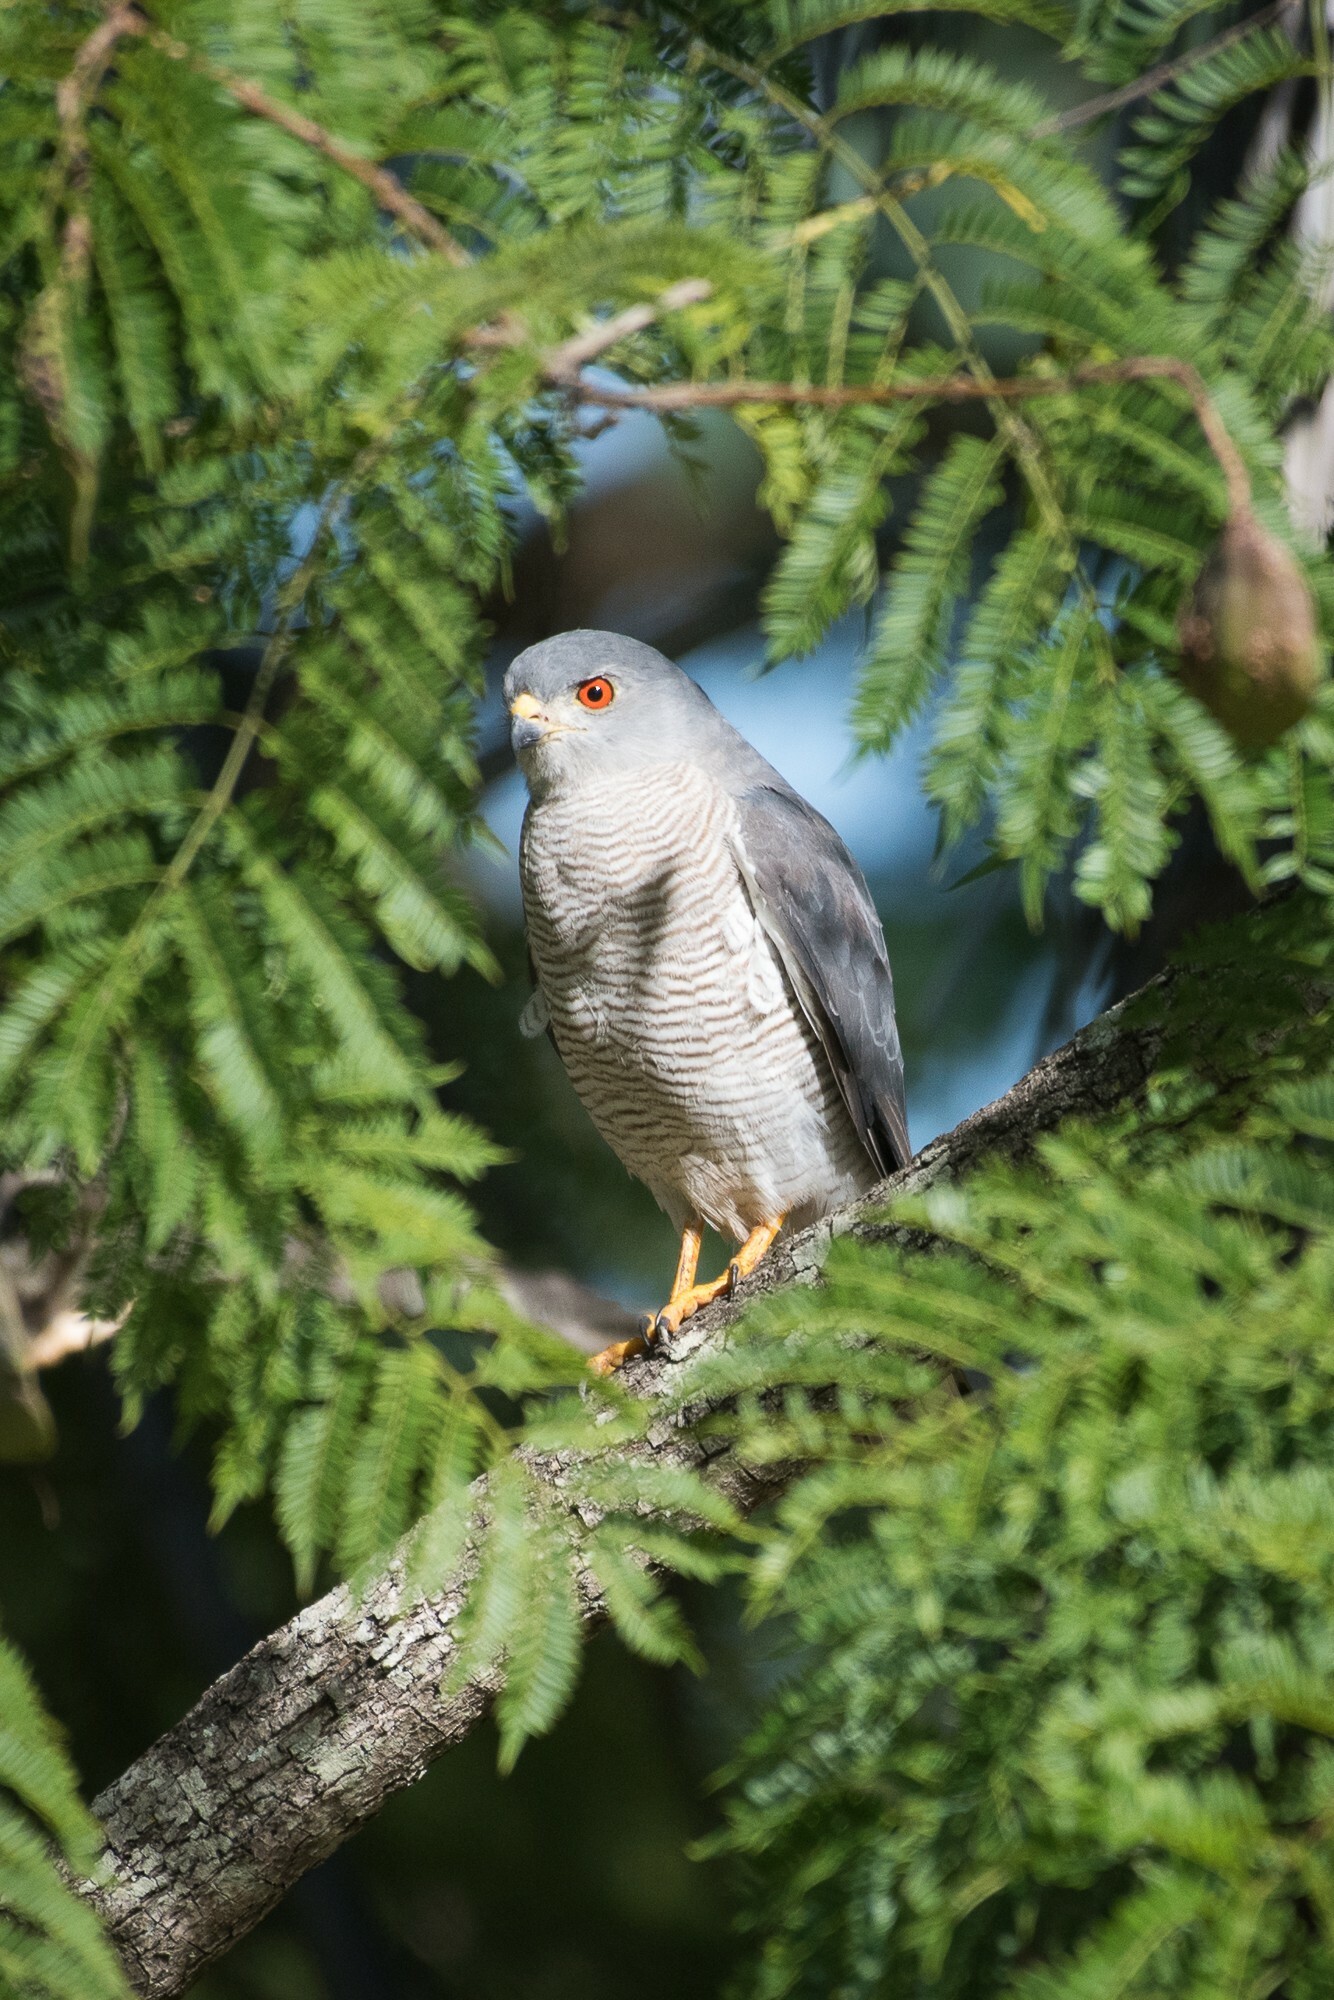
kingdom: Animalia
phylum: Chordata
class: Aves
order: Accipitriformes
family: Accipitridae
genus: Accipiter
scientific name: Accipiter badius
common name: Shikra
